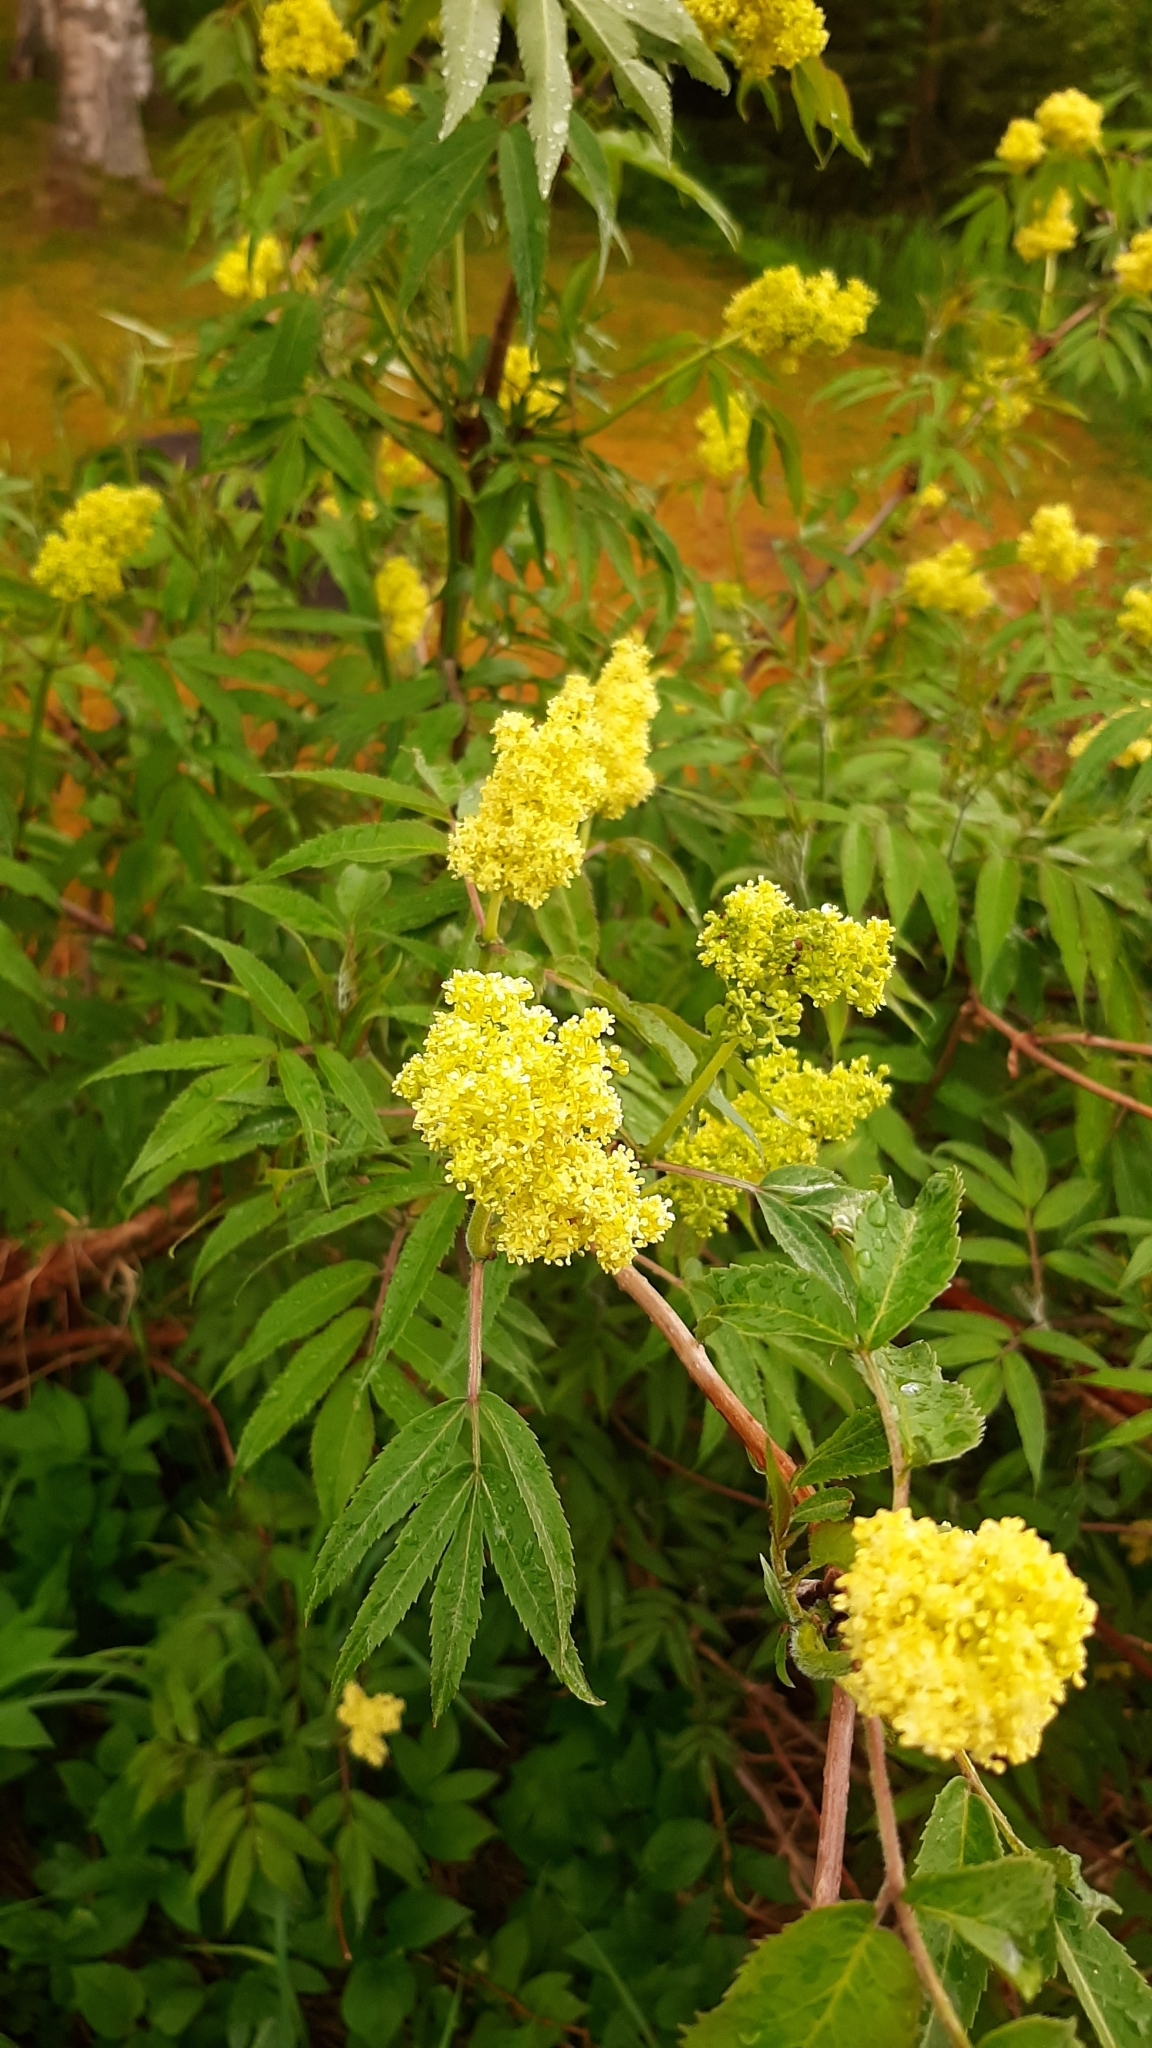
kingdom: Plantae
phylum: Tracheophyta
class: Magnoliopsida
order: Dipsacales
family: Viburnaceae
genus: Sambucus
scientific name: Sambucus racemosa
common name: Red-berried elder
